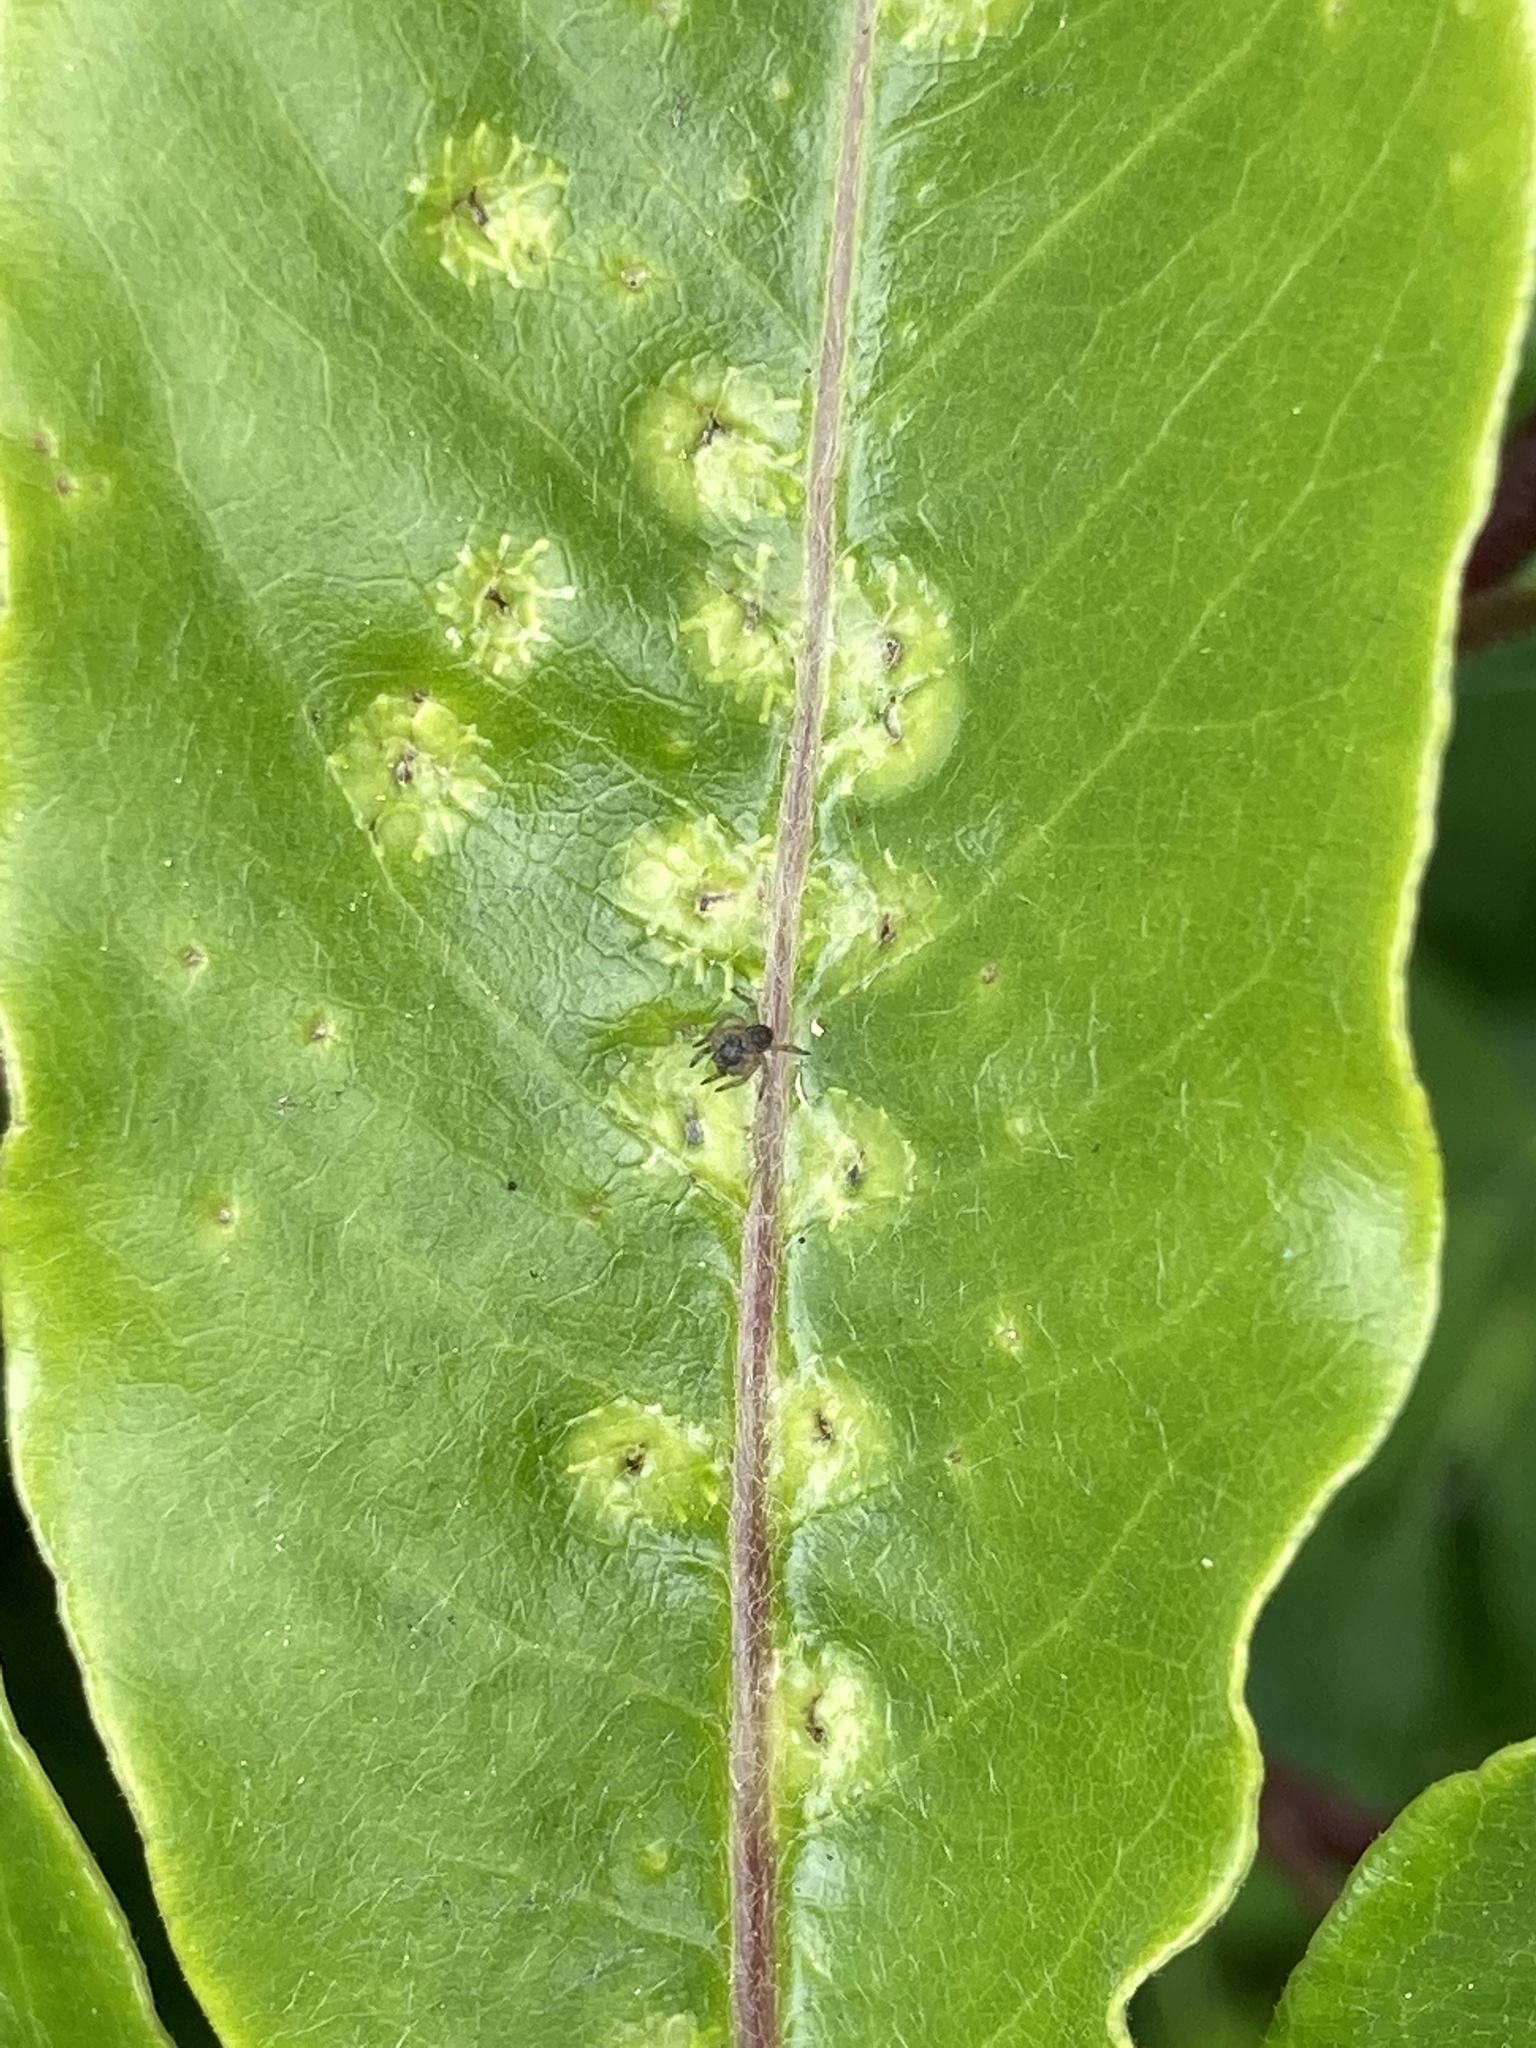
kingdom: Animalia
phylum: Arthropoda
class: Insecta
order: Diptera
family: Agromyzidae
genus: Phytoliriomyza
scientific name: Phytoliriomyza pittosporophylli
